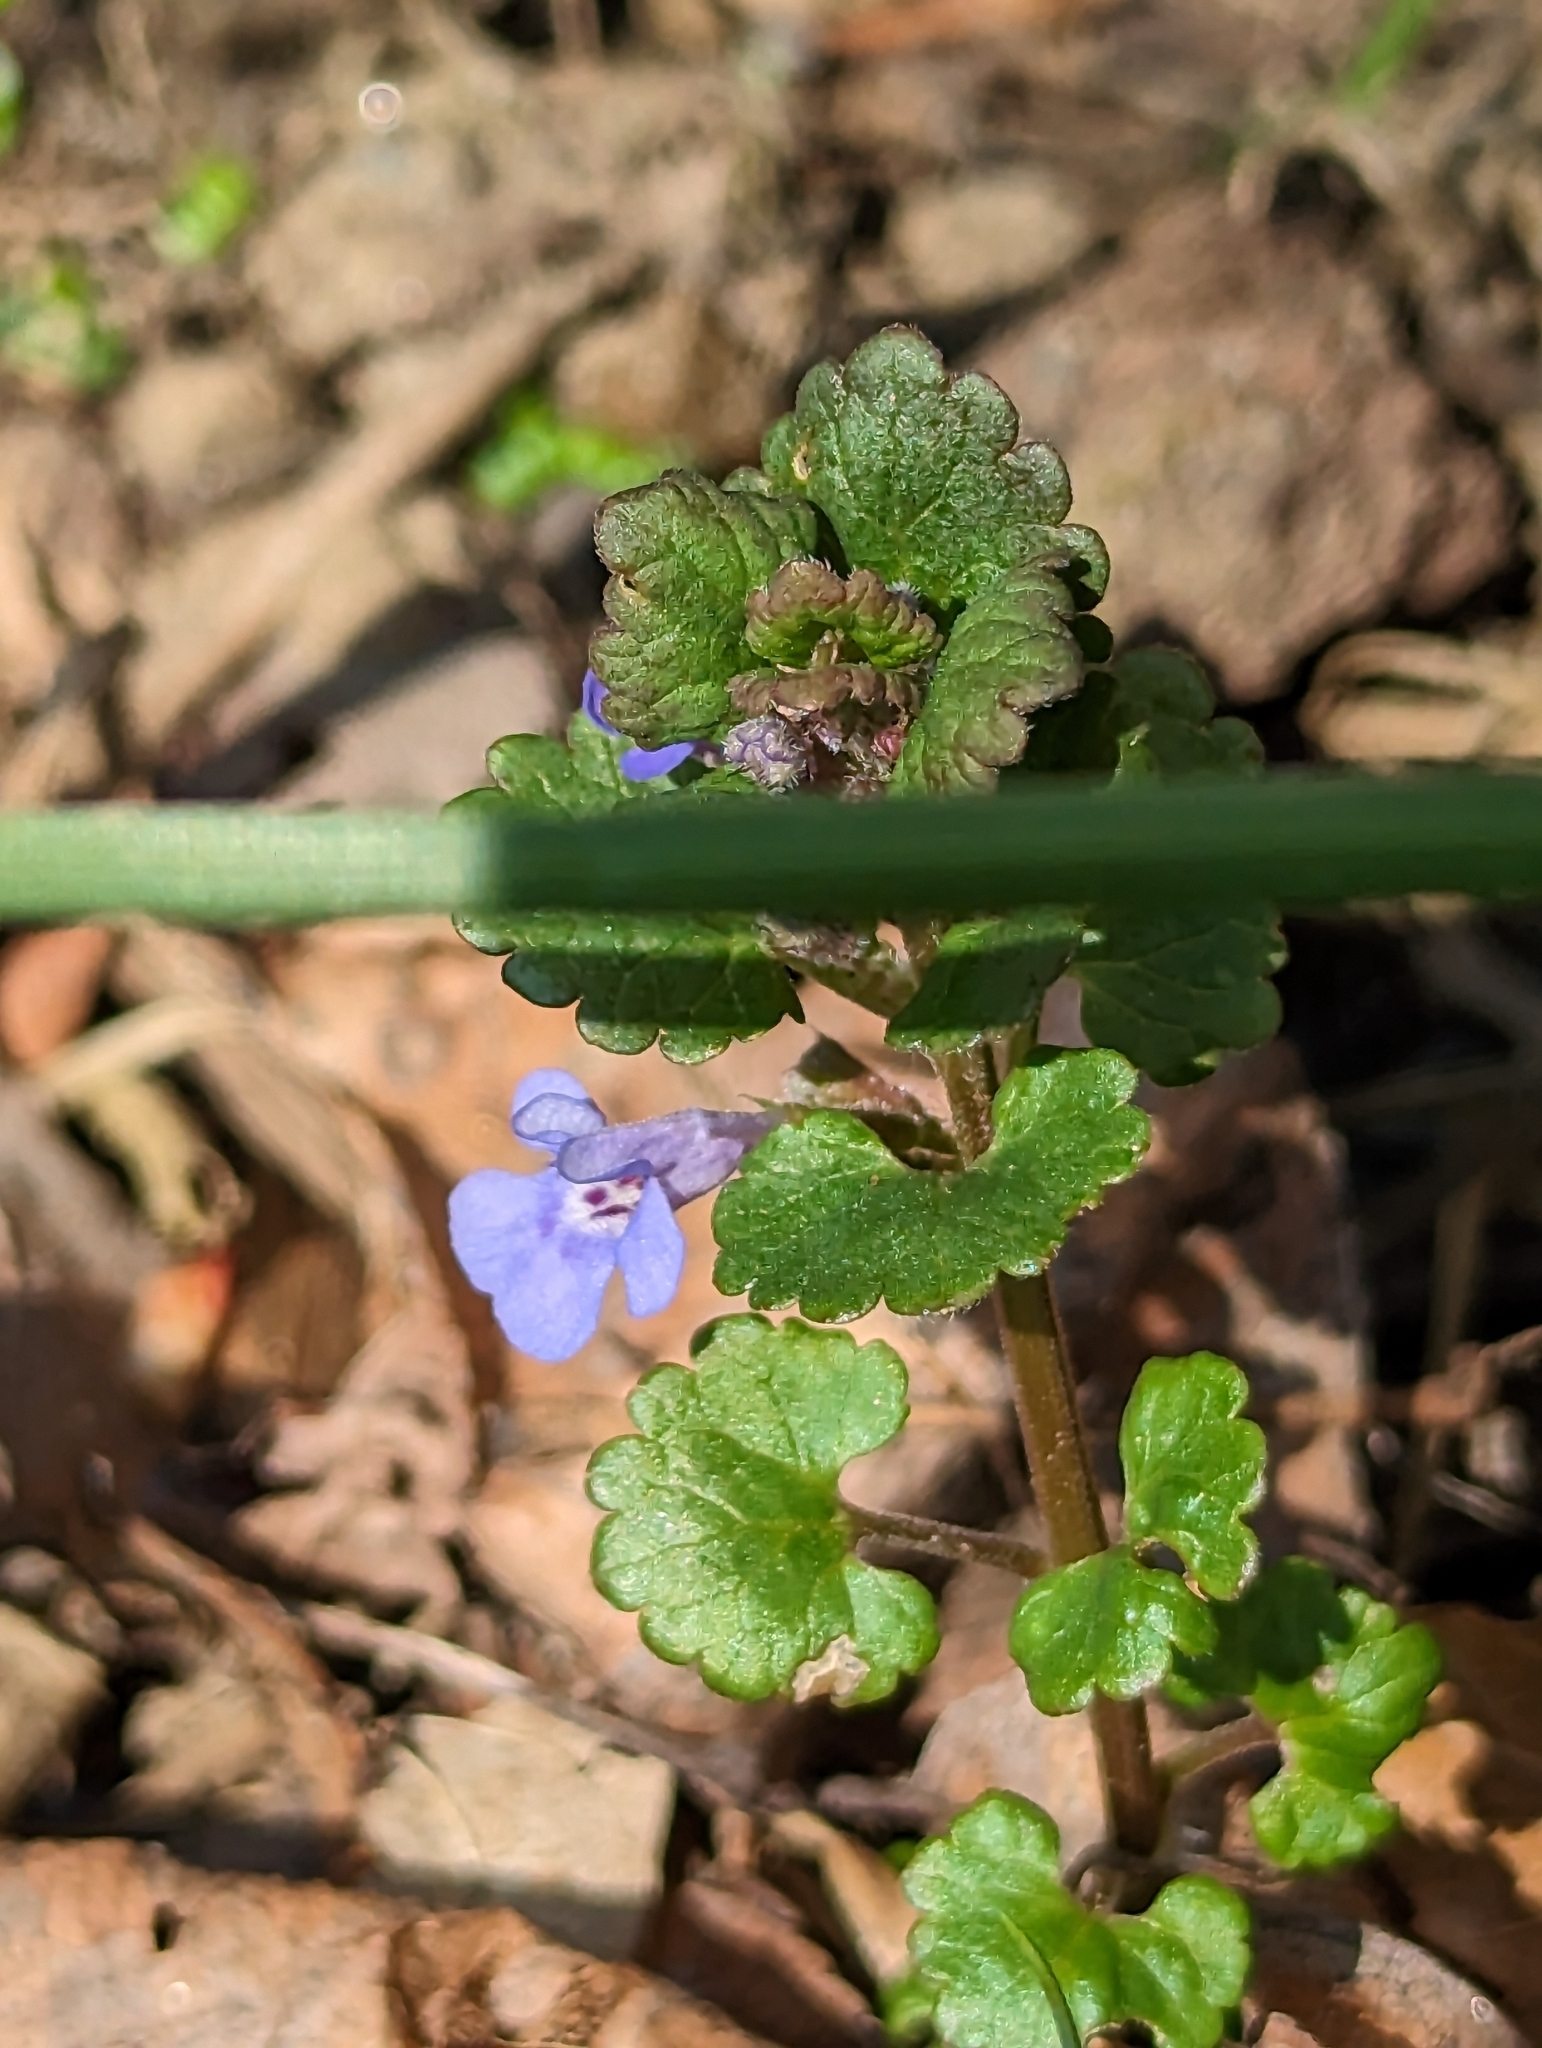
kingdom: Plantae
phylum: Tracheophyta
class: Magnoliopsida
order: Lamiales
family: Lamiaceae
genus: Glechoma
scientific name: Glechoma hederacea
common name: Ground ivy
